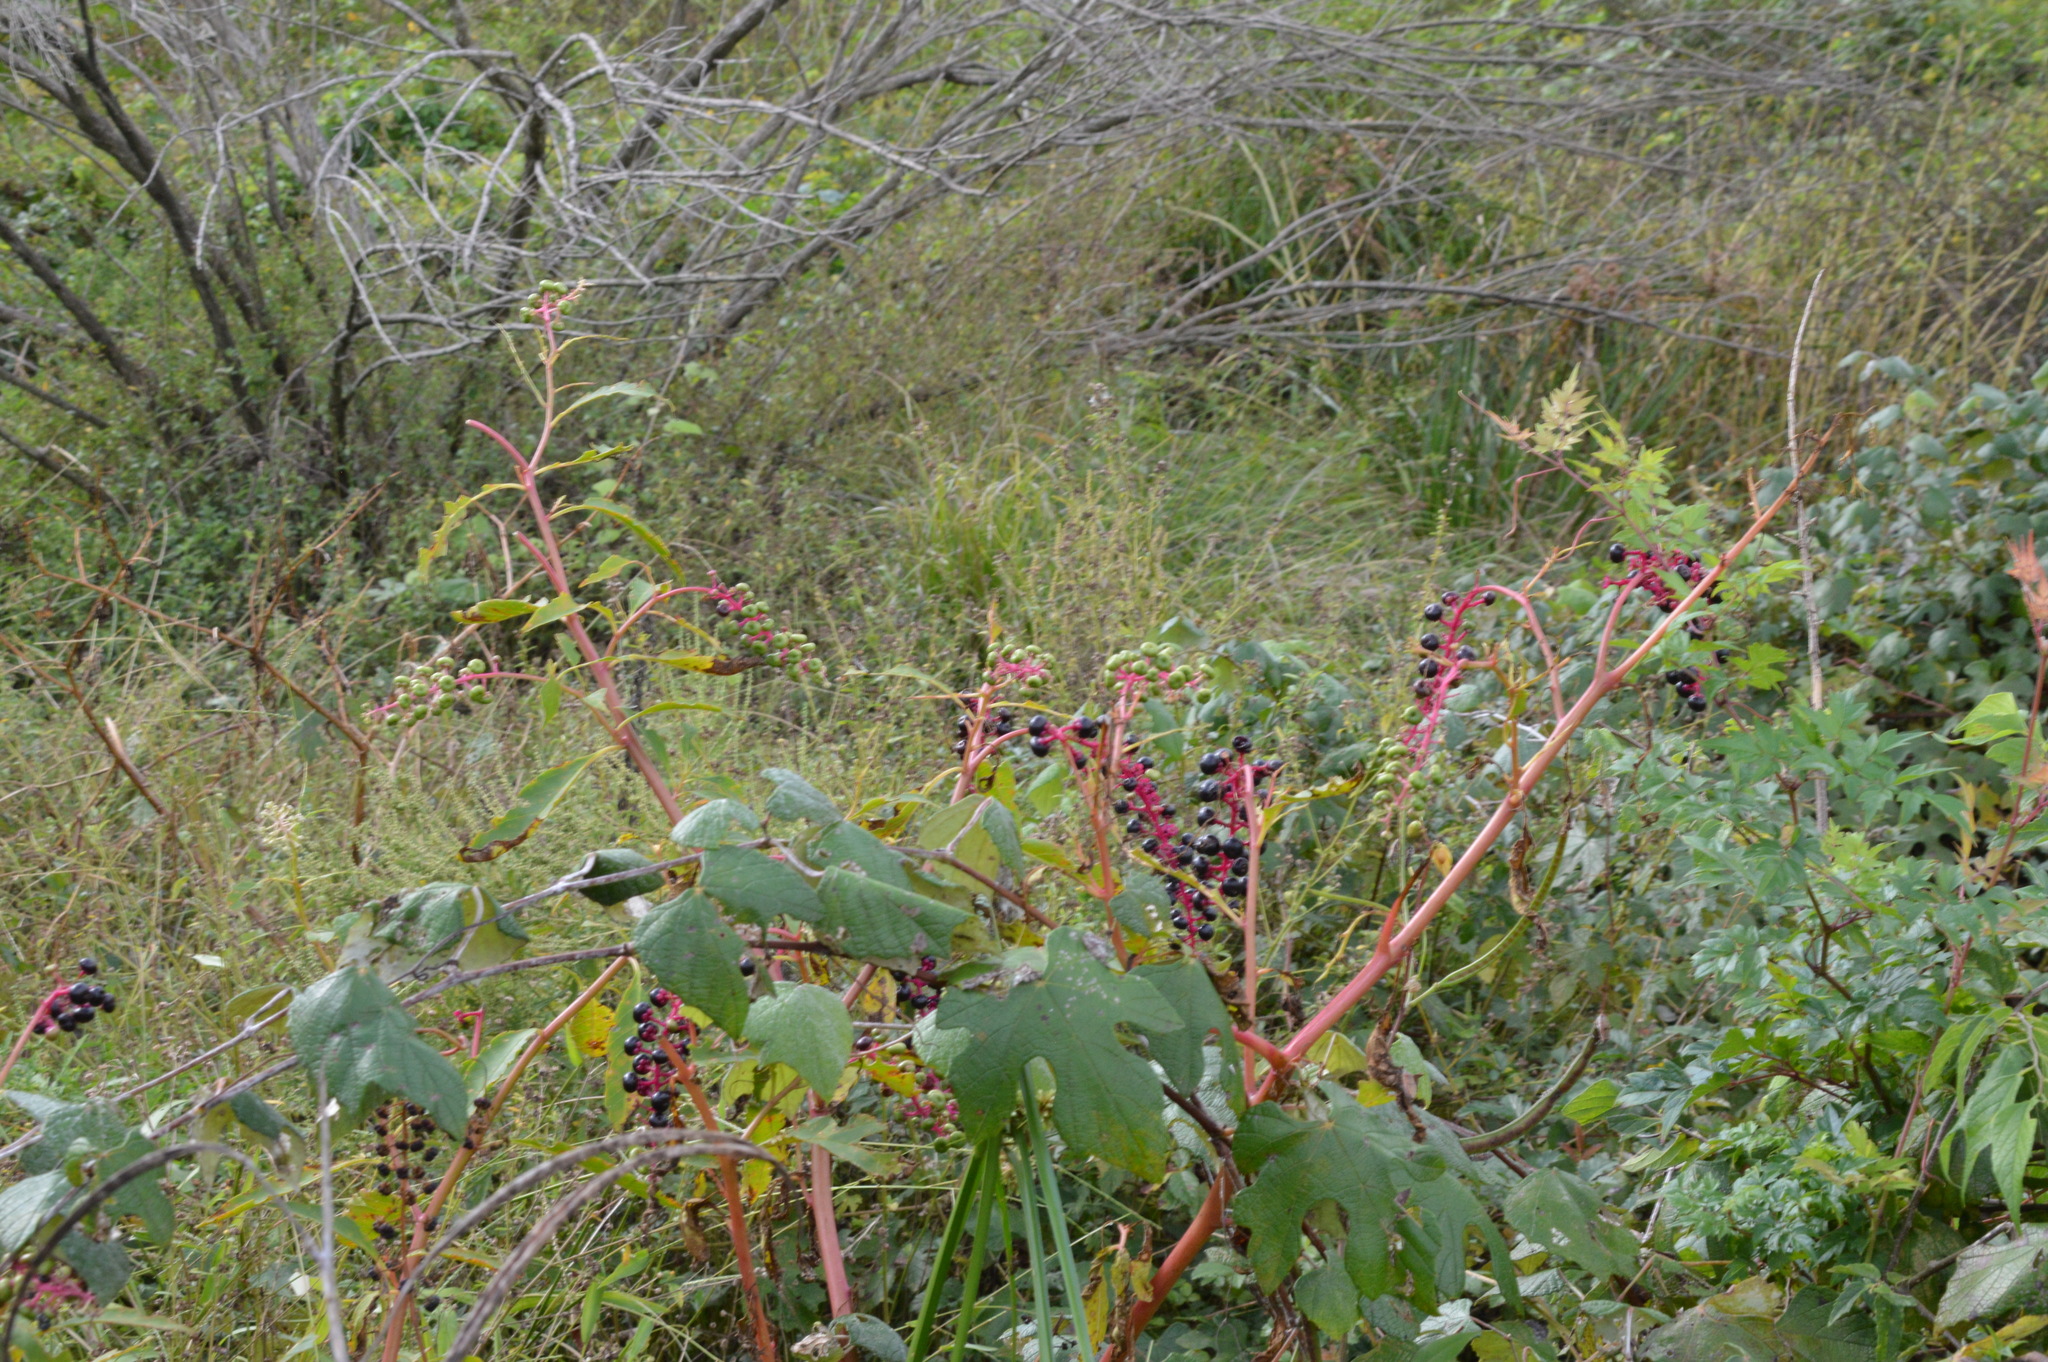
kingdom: Plantae
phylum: Tracheophyta
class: Magnoliopsida
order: Caryophyllales
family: Phytolaccaceae
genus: Phytolacca
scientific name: Phytolacca americana
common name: American pokeweed
